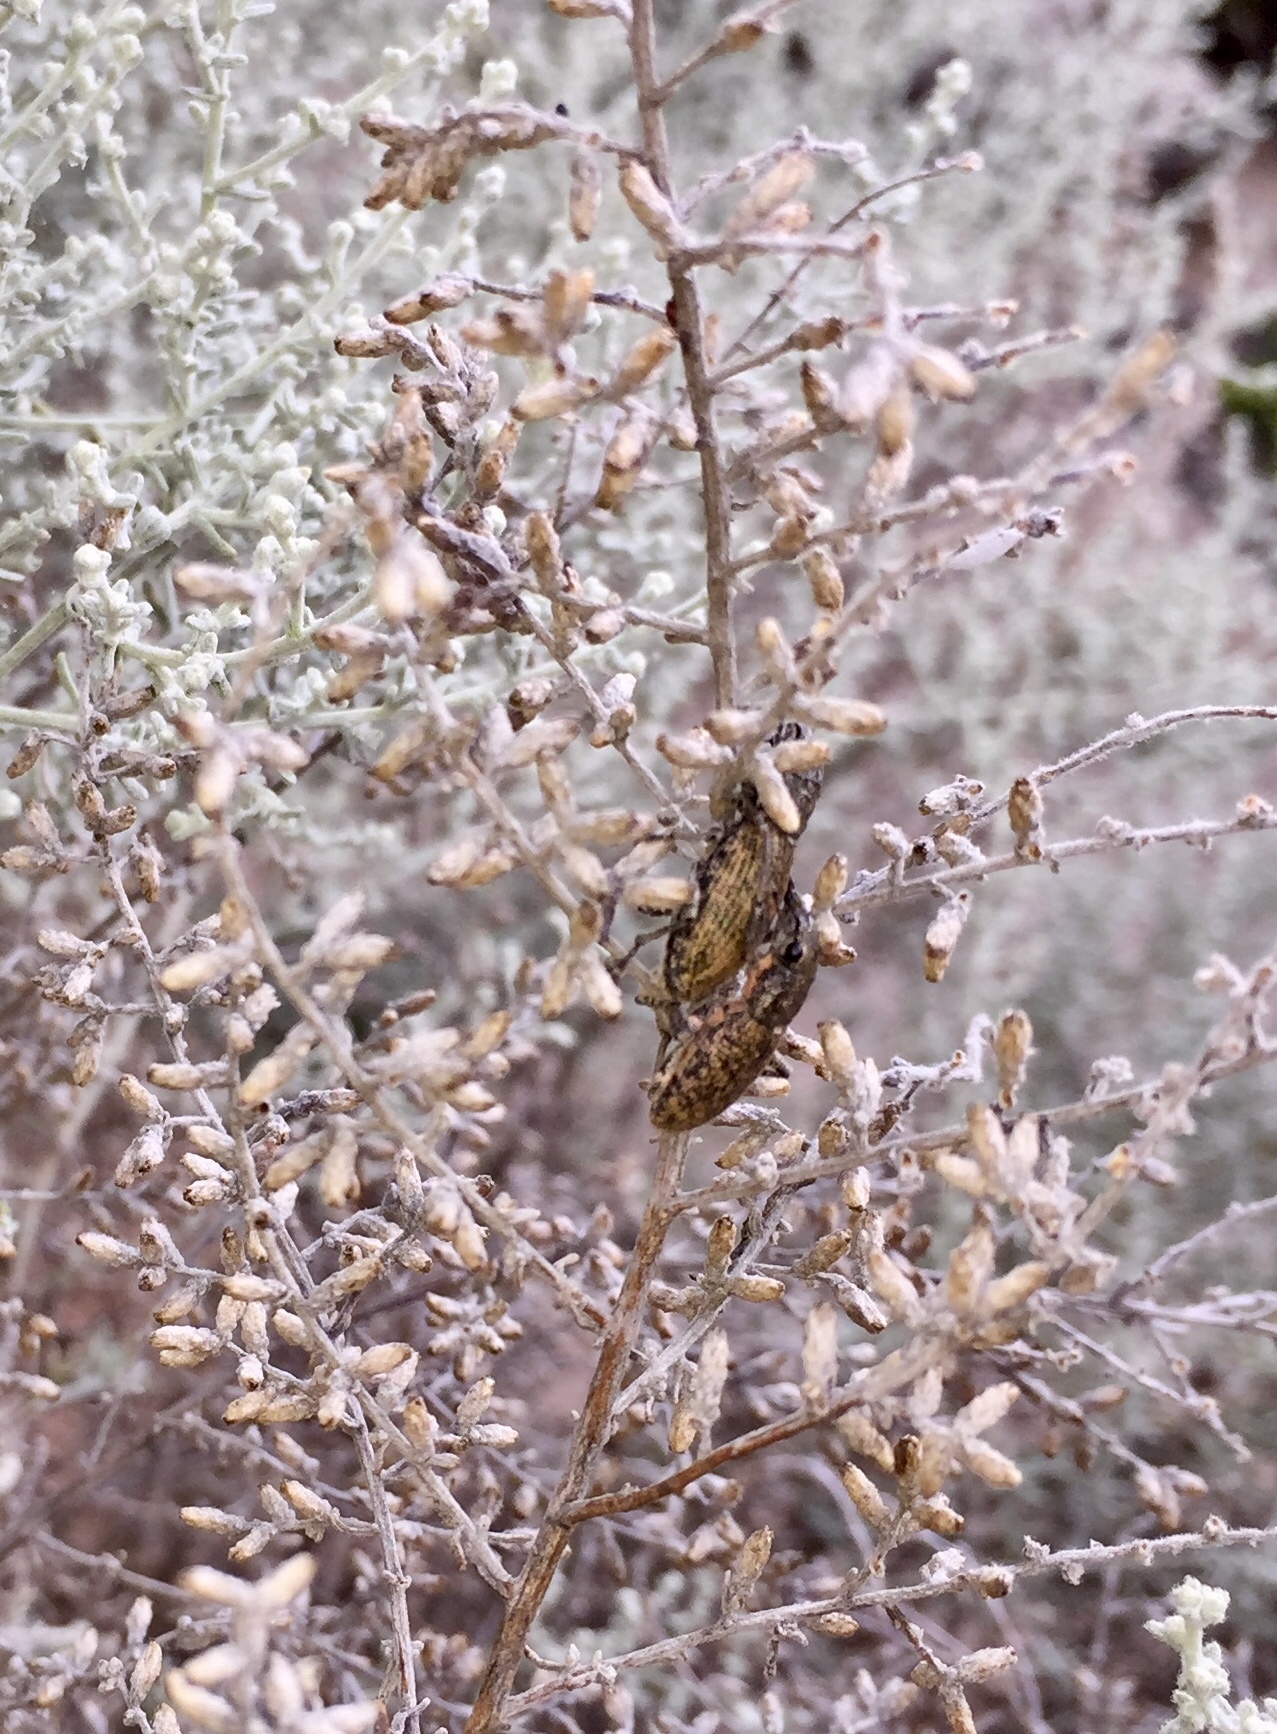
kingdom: Animalia
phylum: Arthropoda
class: Insecta
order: Coleoptera
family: Curculionidae
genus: Herpisticus
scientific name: Herpisticus subvestitus
